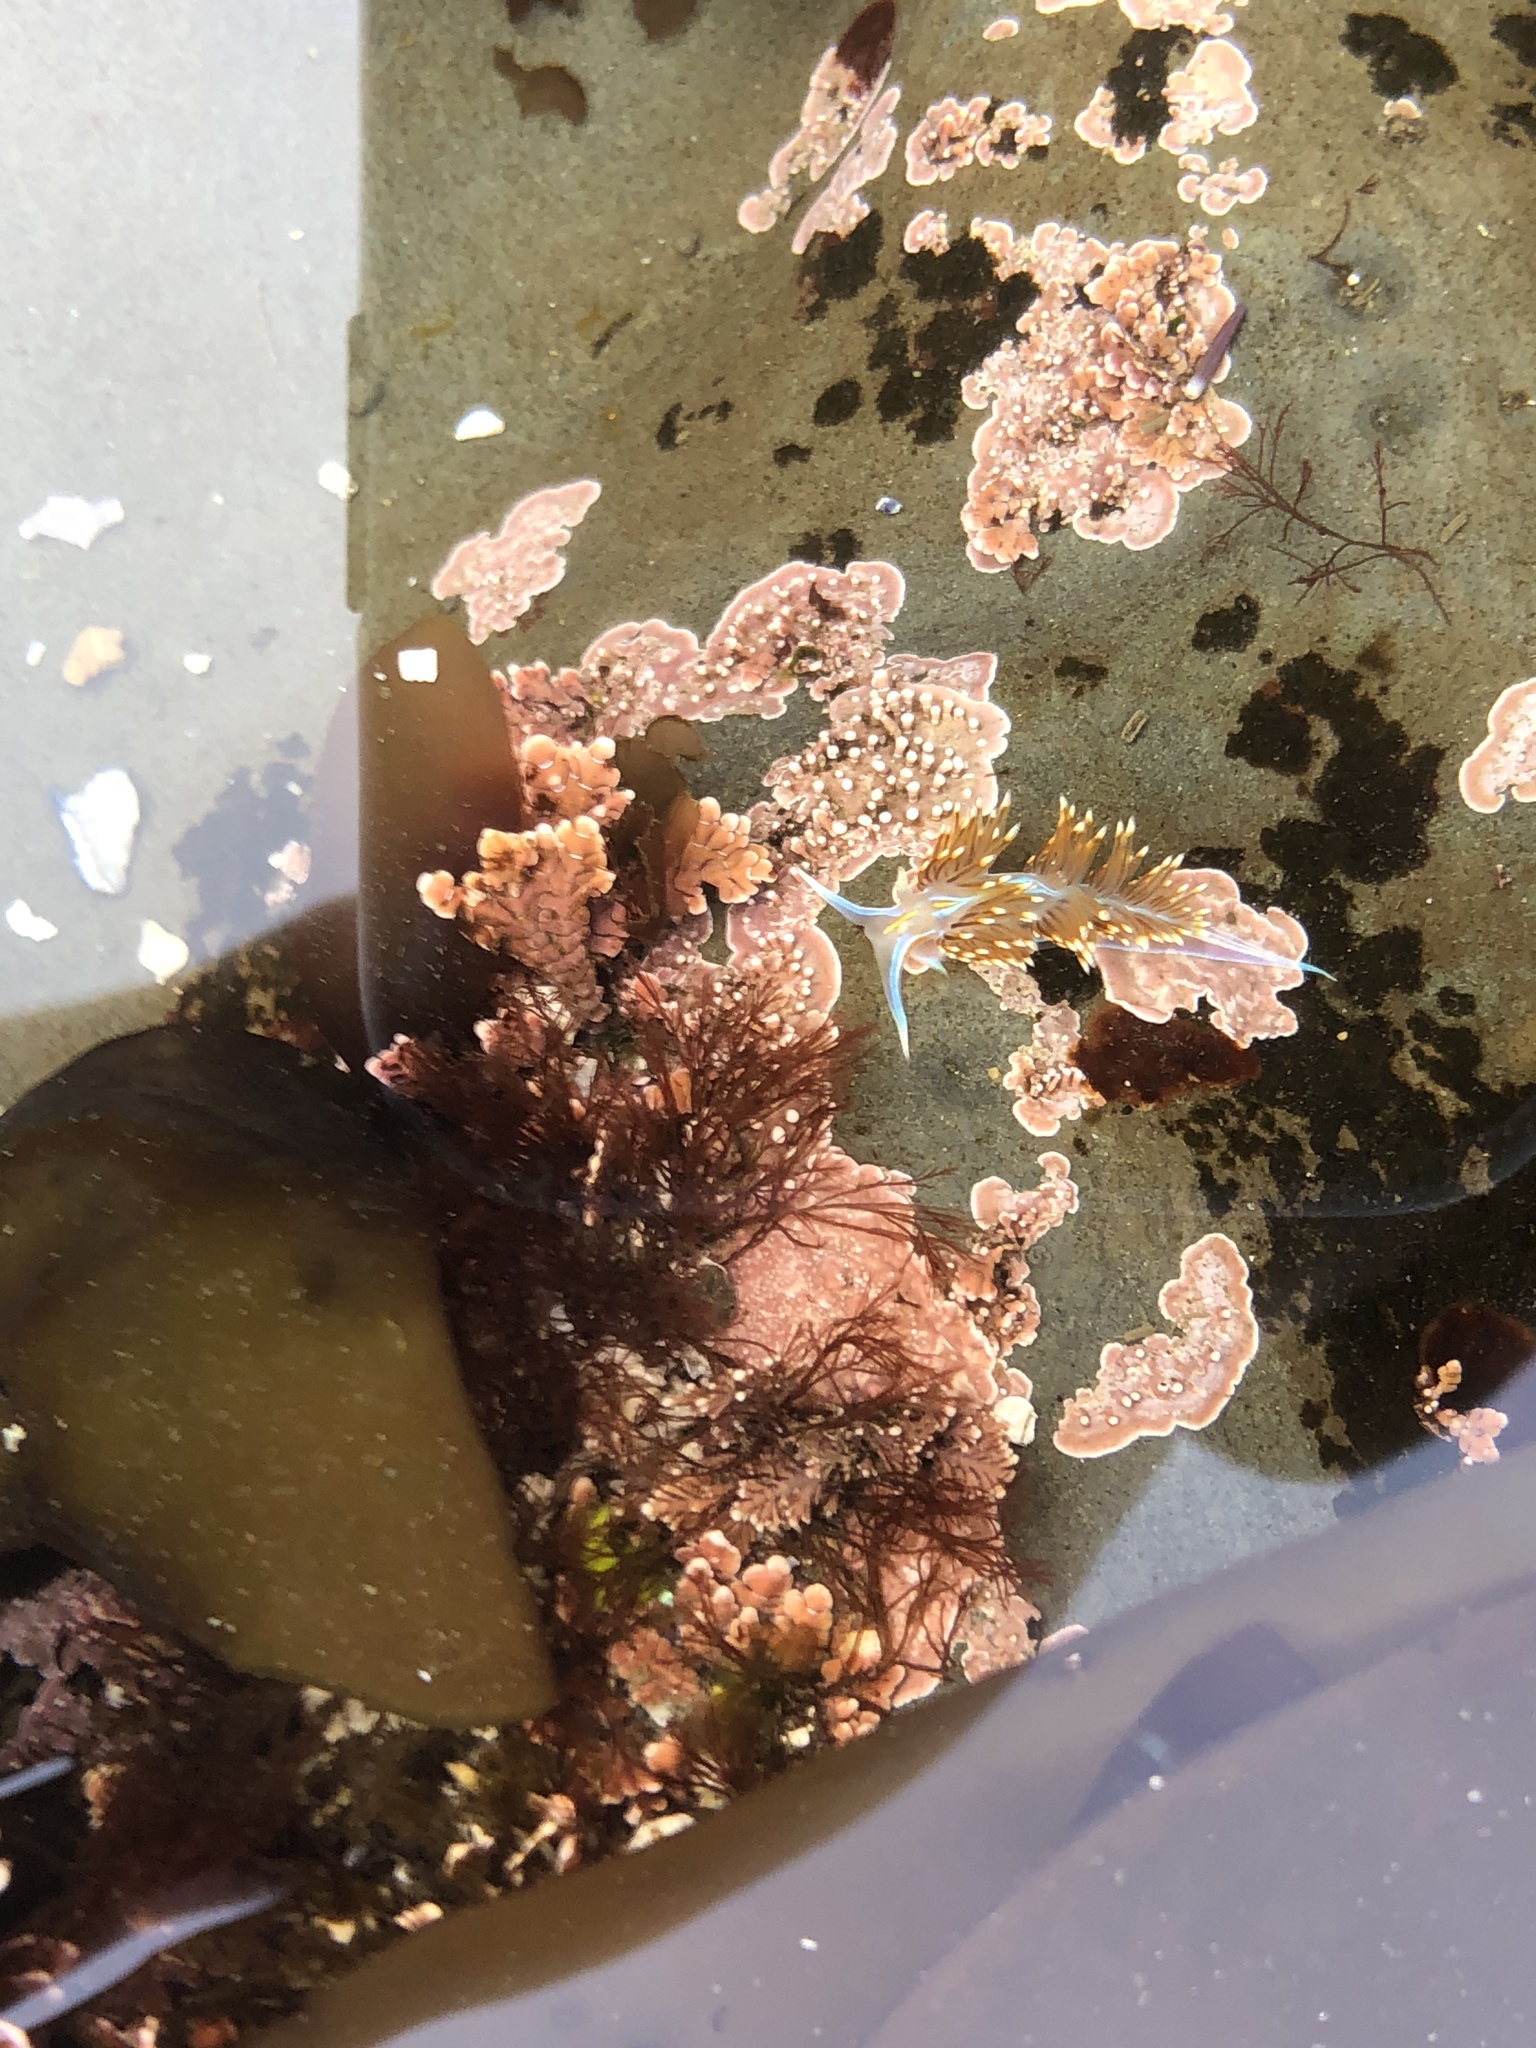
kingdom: Animalia
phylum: Mollusca
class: Gastropoda
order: Nudibranchia
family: Myrrhinidae
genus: Hermissenda
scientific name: Hermissenda opalescens
